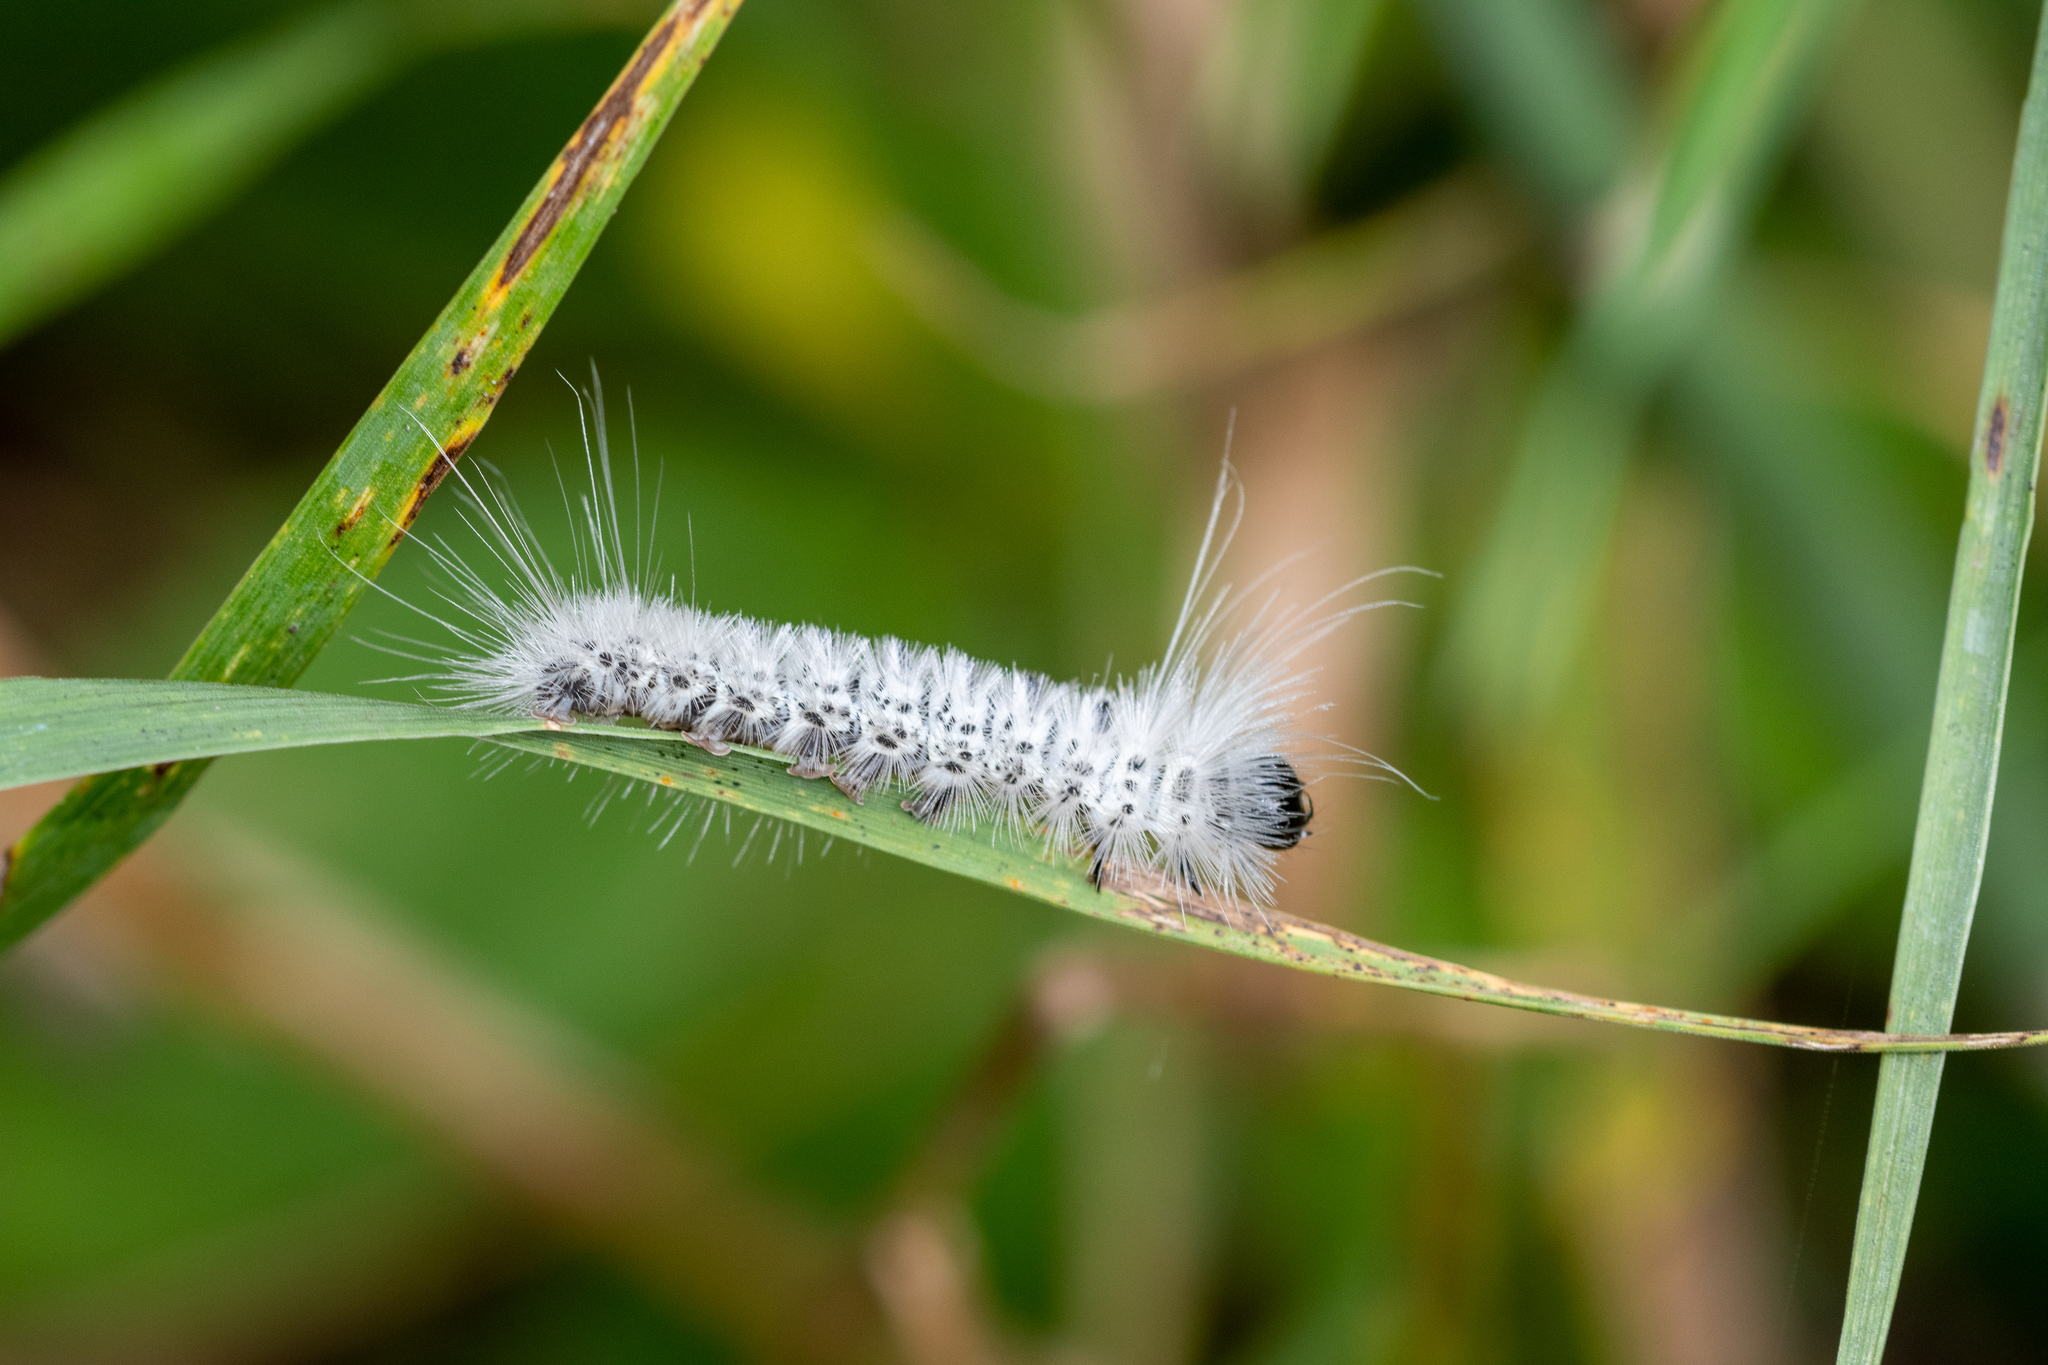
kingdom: Animalia
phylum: Arthropoda
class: Insecta
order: Lepidoptera
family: Erebidae
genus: Lophocampa
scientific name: Lophocampa caryae
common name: Hickory tussock moth
